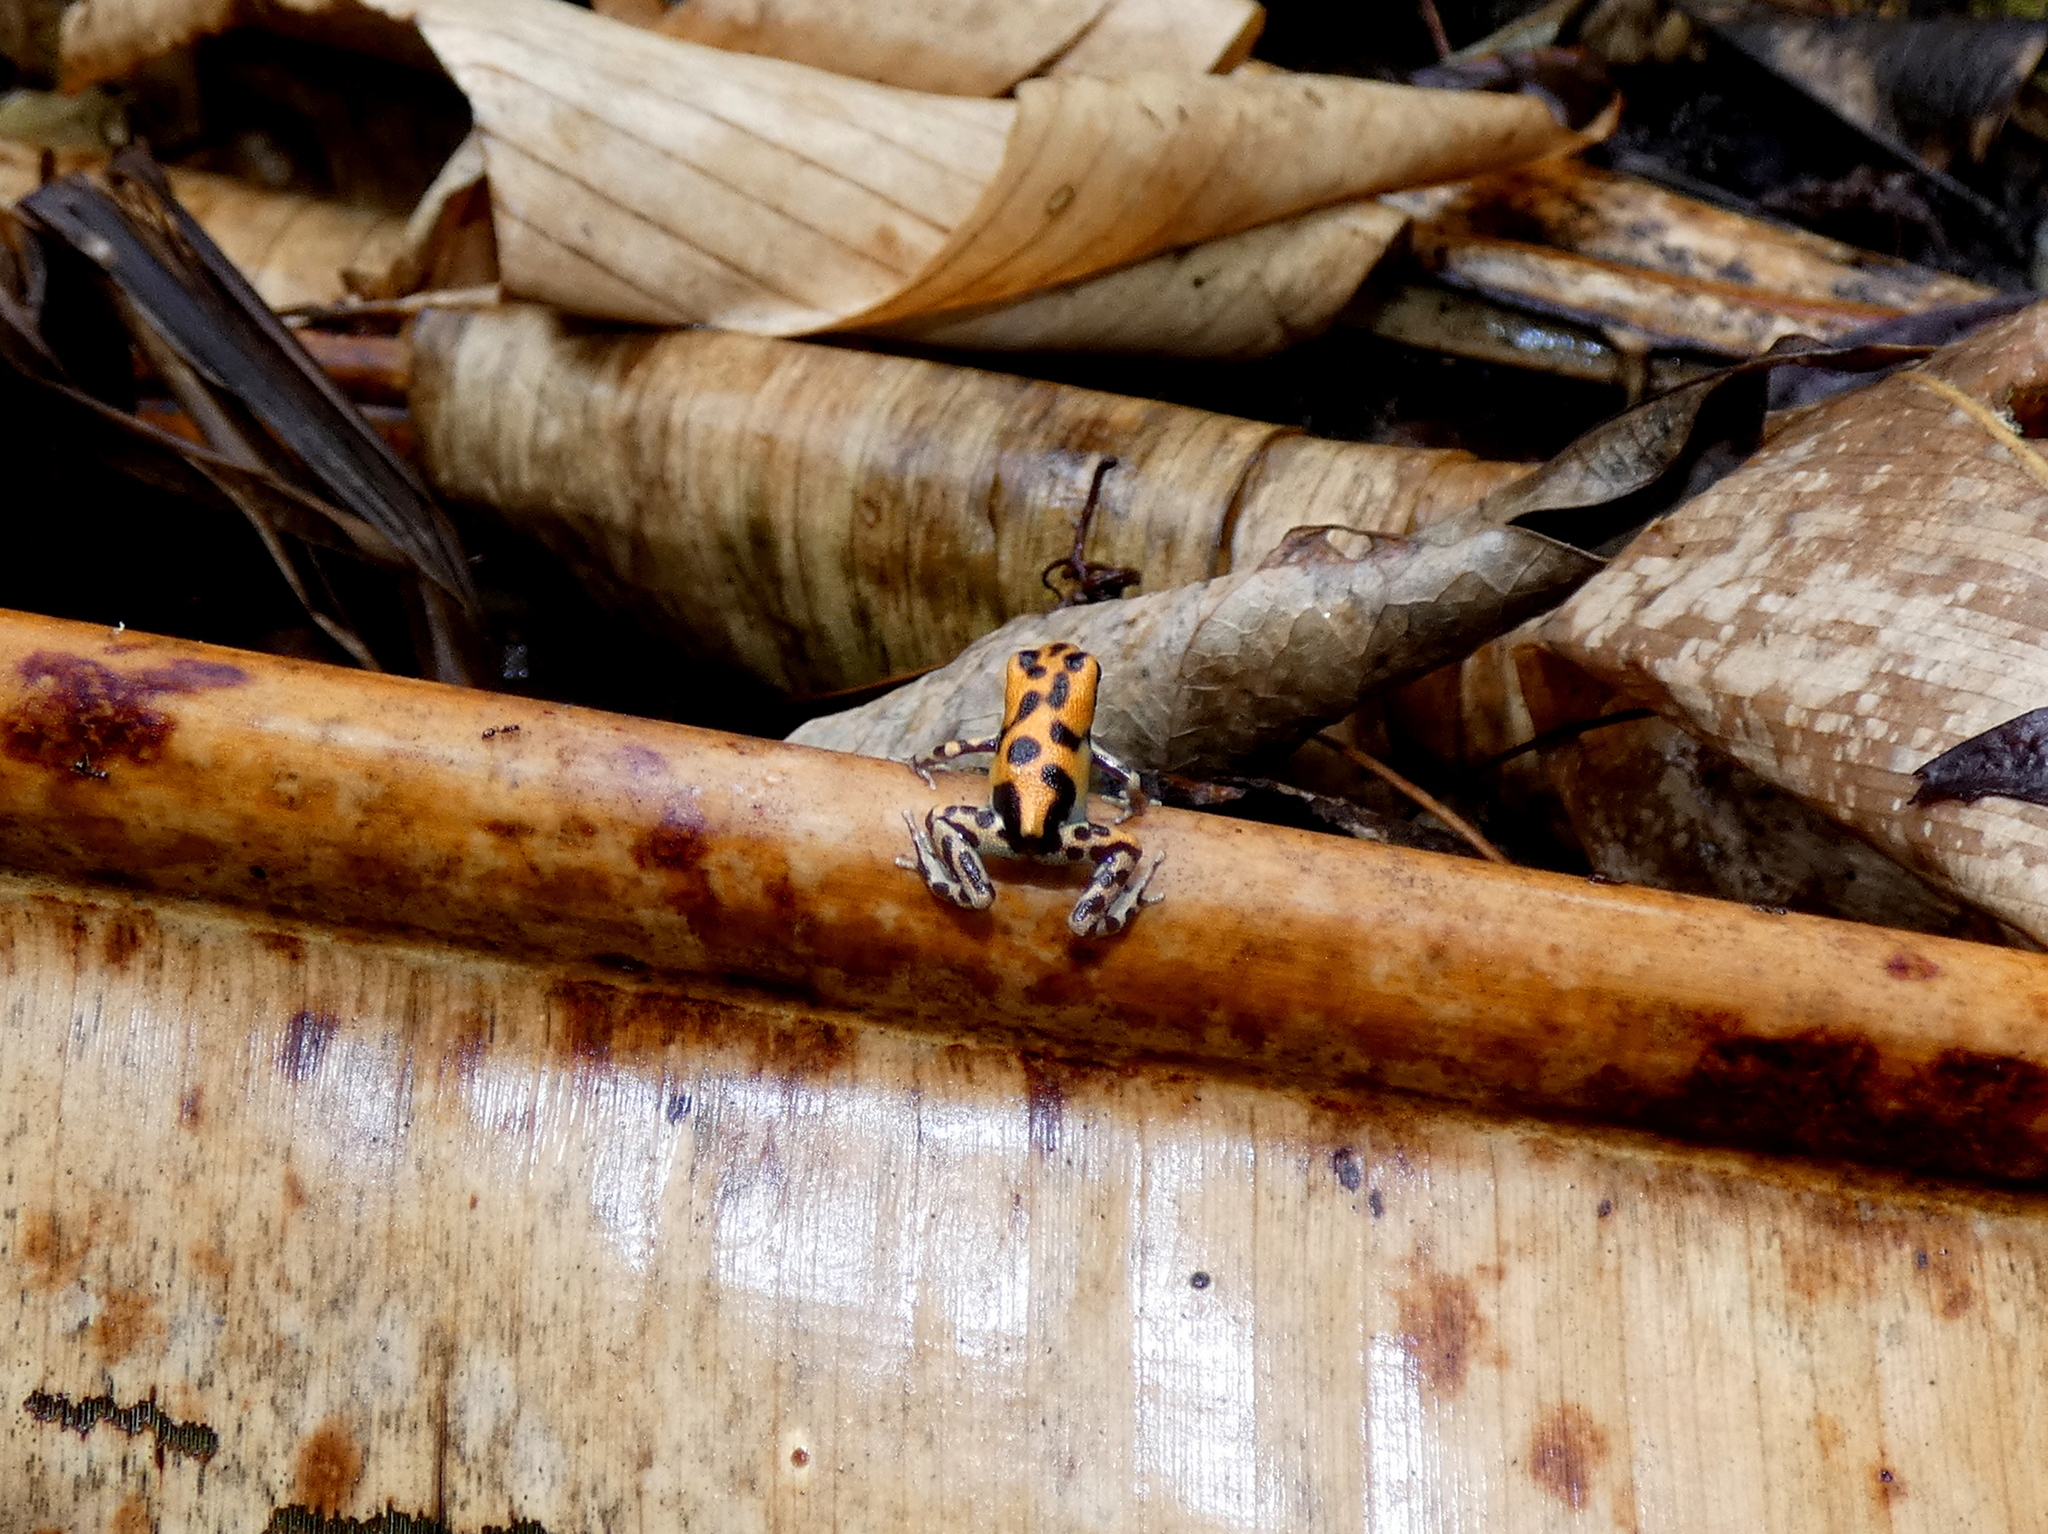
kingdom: Animalia
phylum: Chordata
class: Amphibia
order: Anura
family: Dendrobatidae
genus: Oophaga
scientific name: Oophaga pumilio
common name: Flaming poison frog
